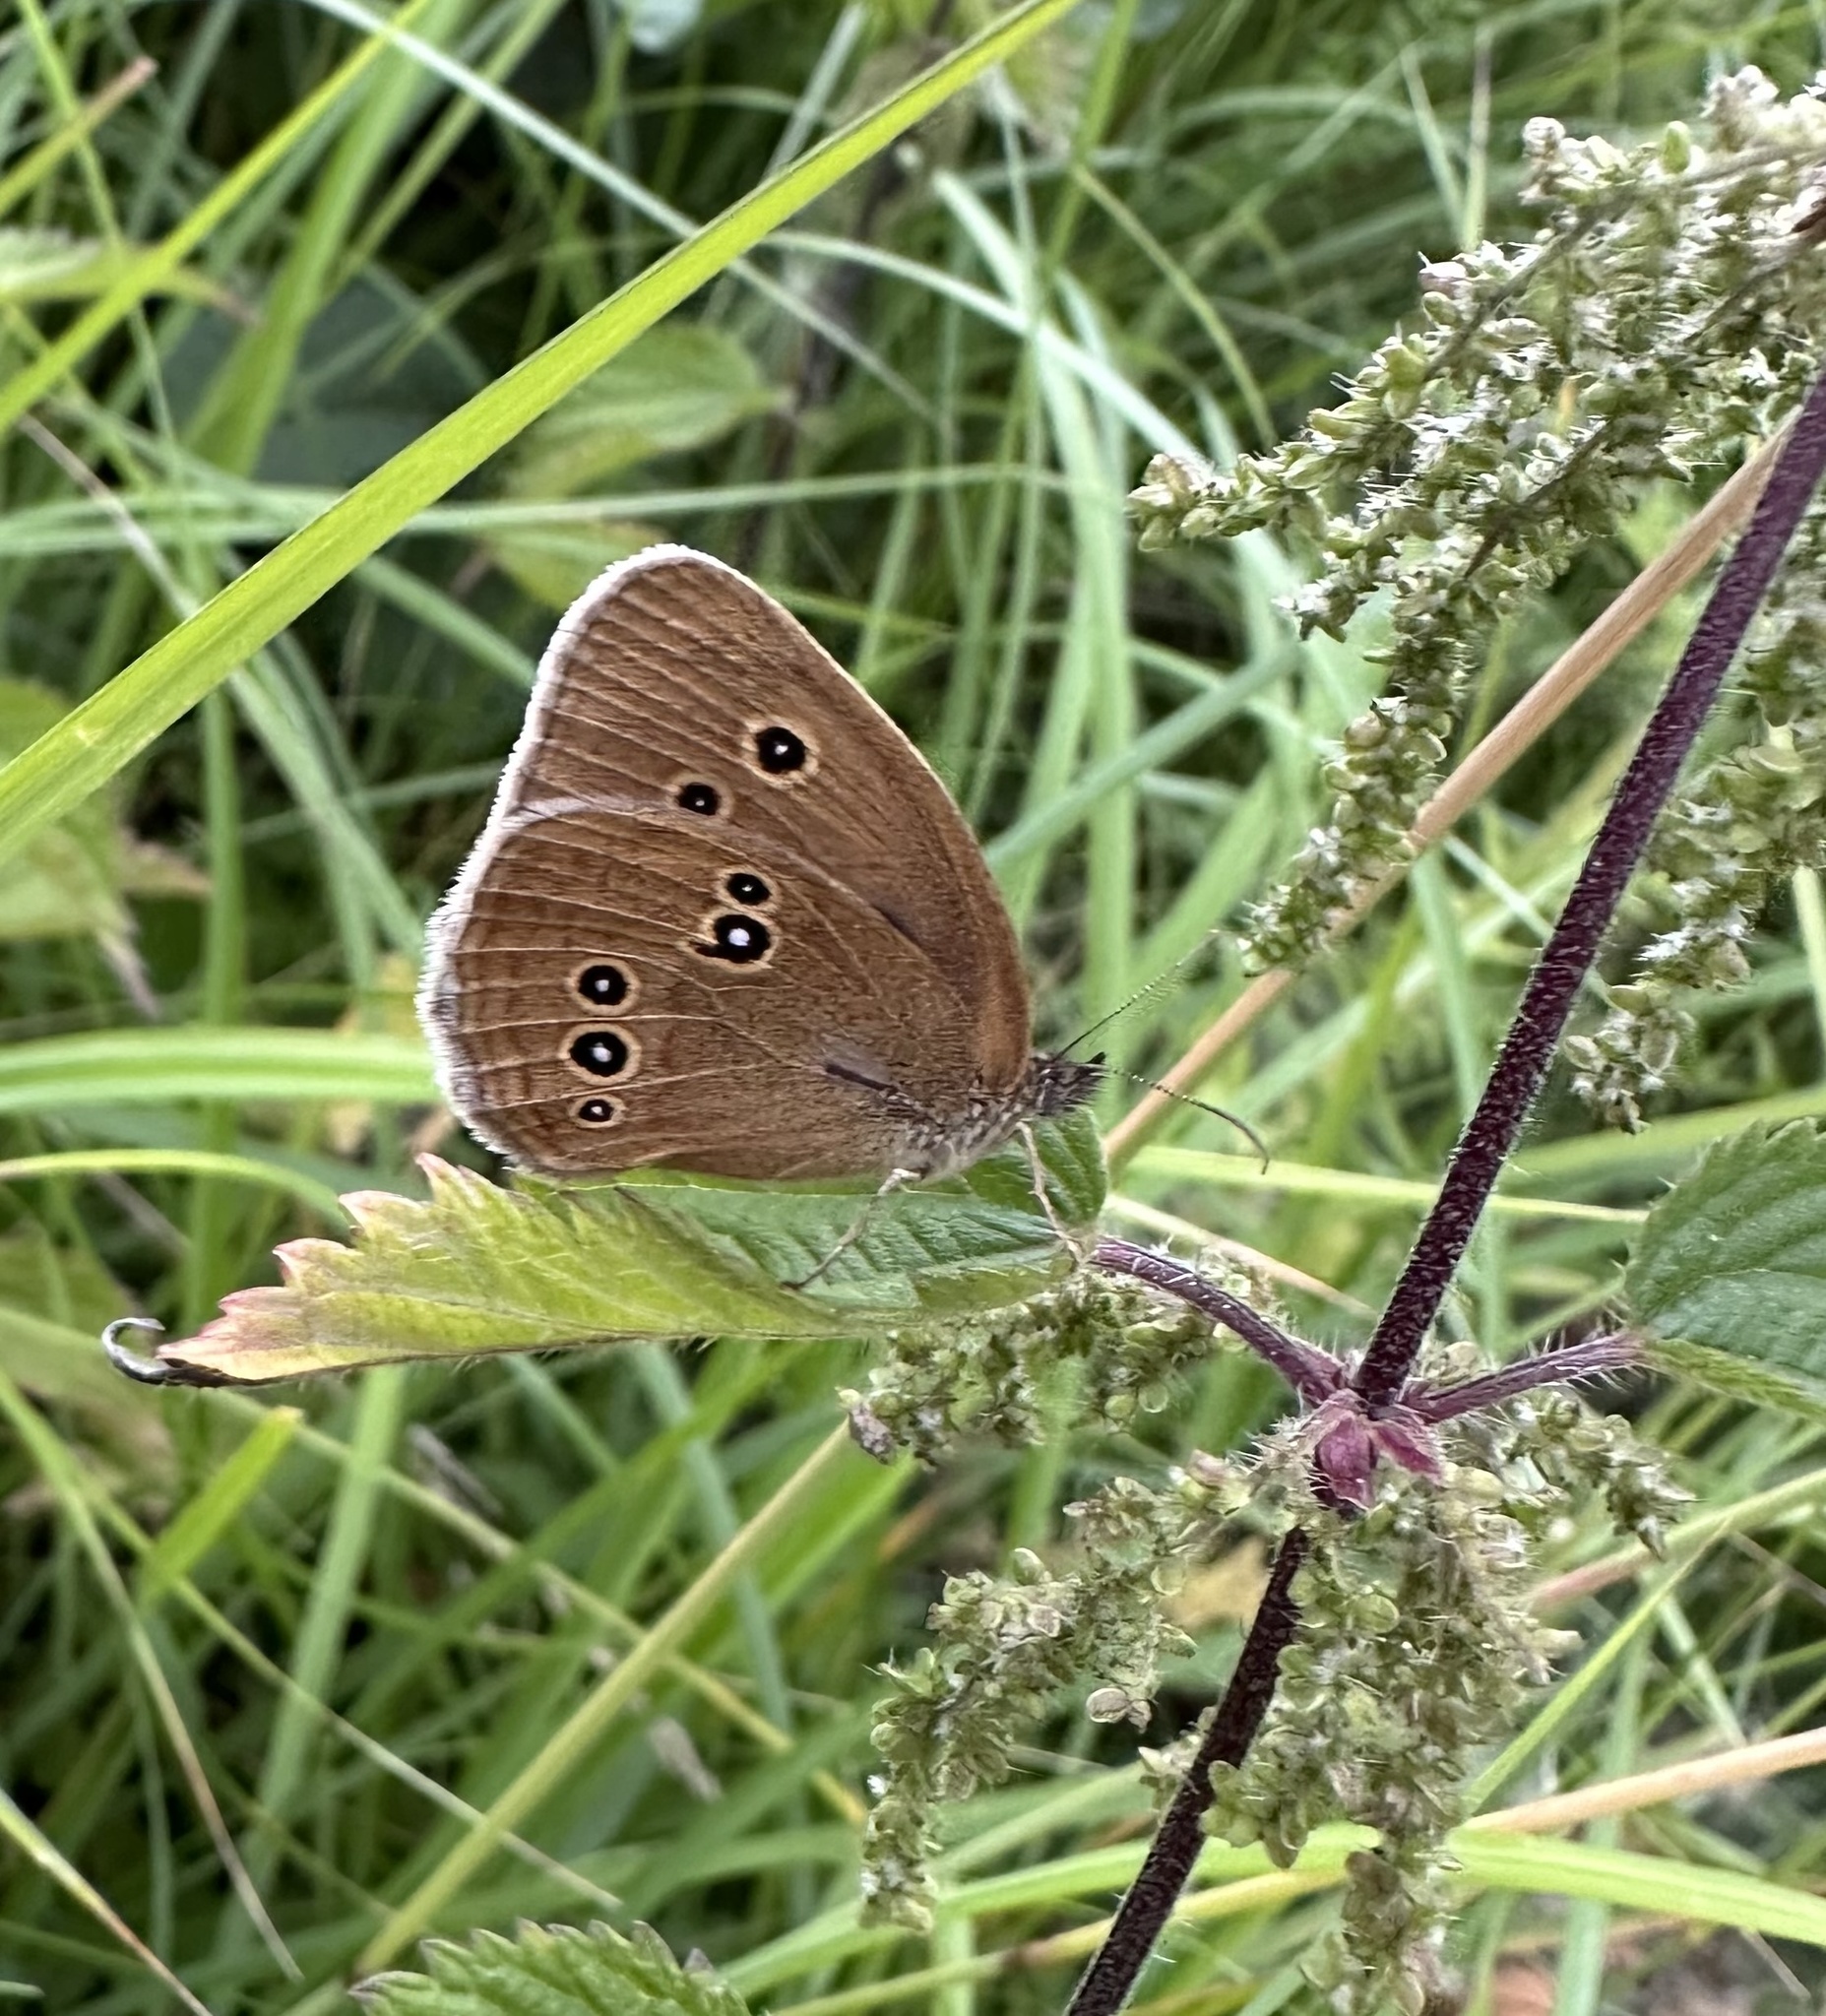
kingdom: Animalia
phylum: Arthropoda
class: Insecta
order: Lepidoptera
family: Nymphalidae
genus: Aphantopus
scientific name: Aphantopus hyperantus
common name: Ringlet
